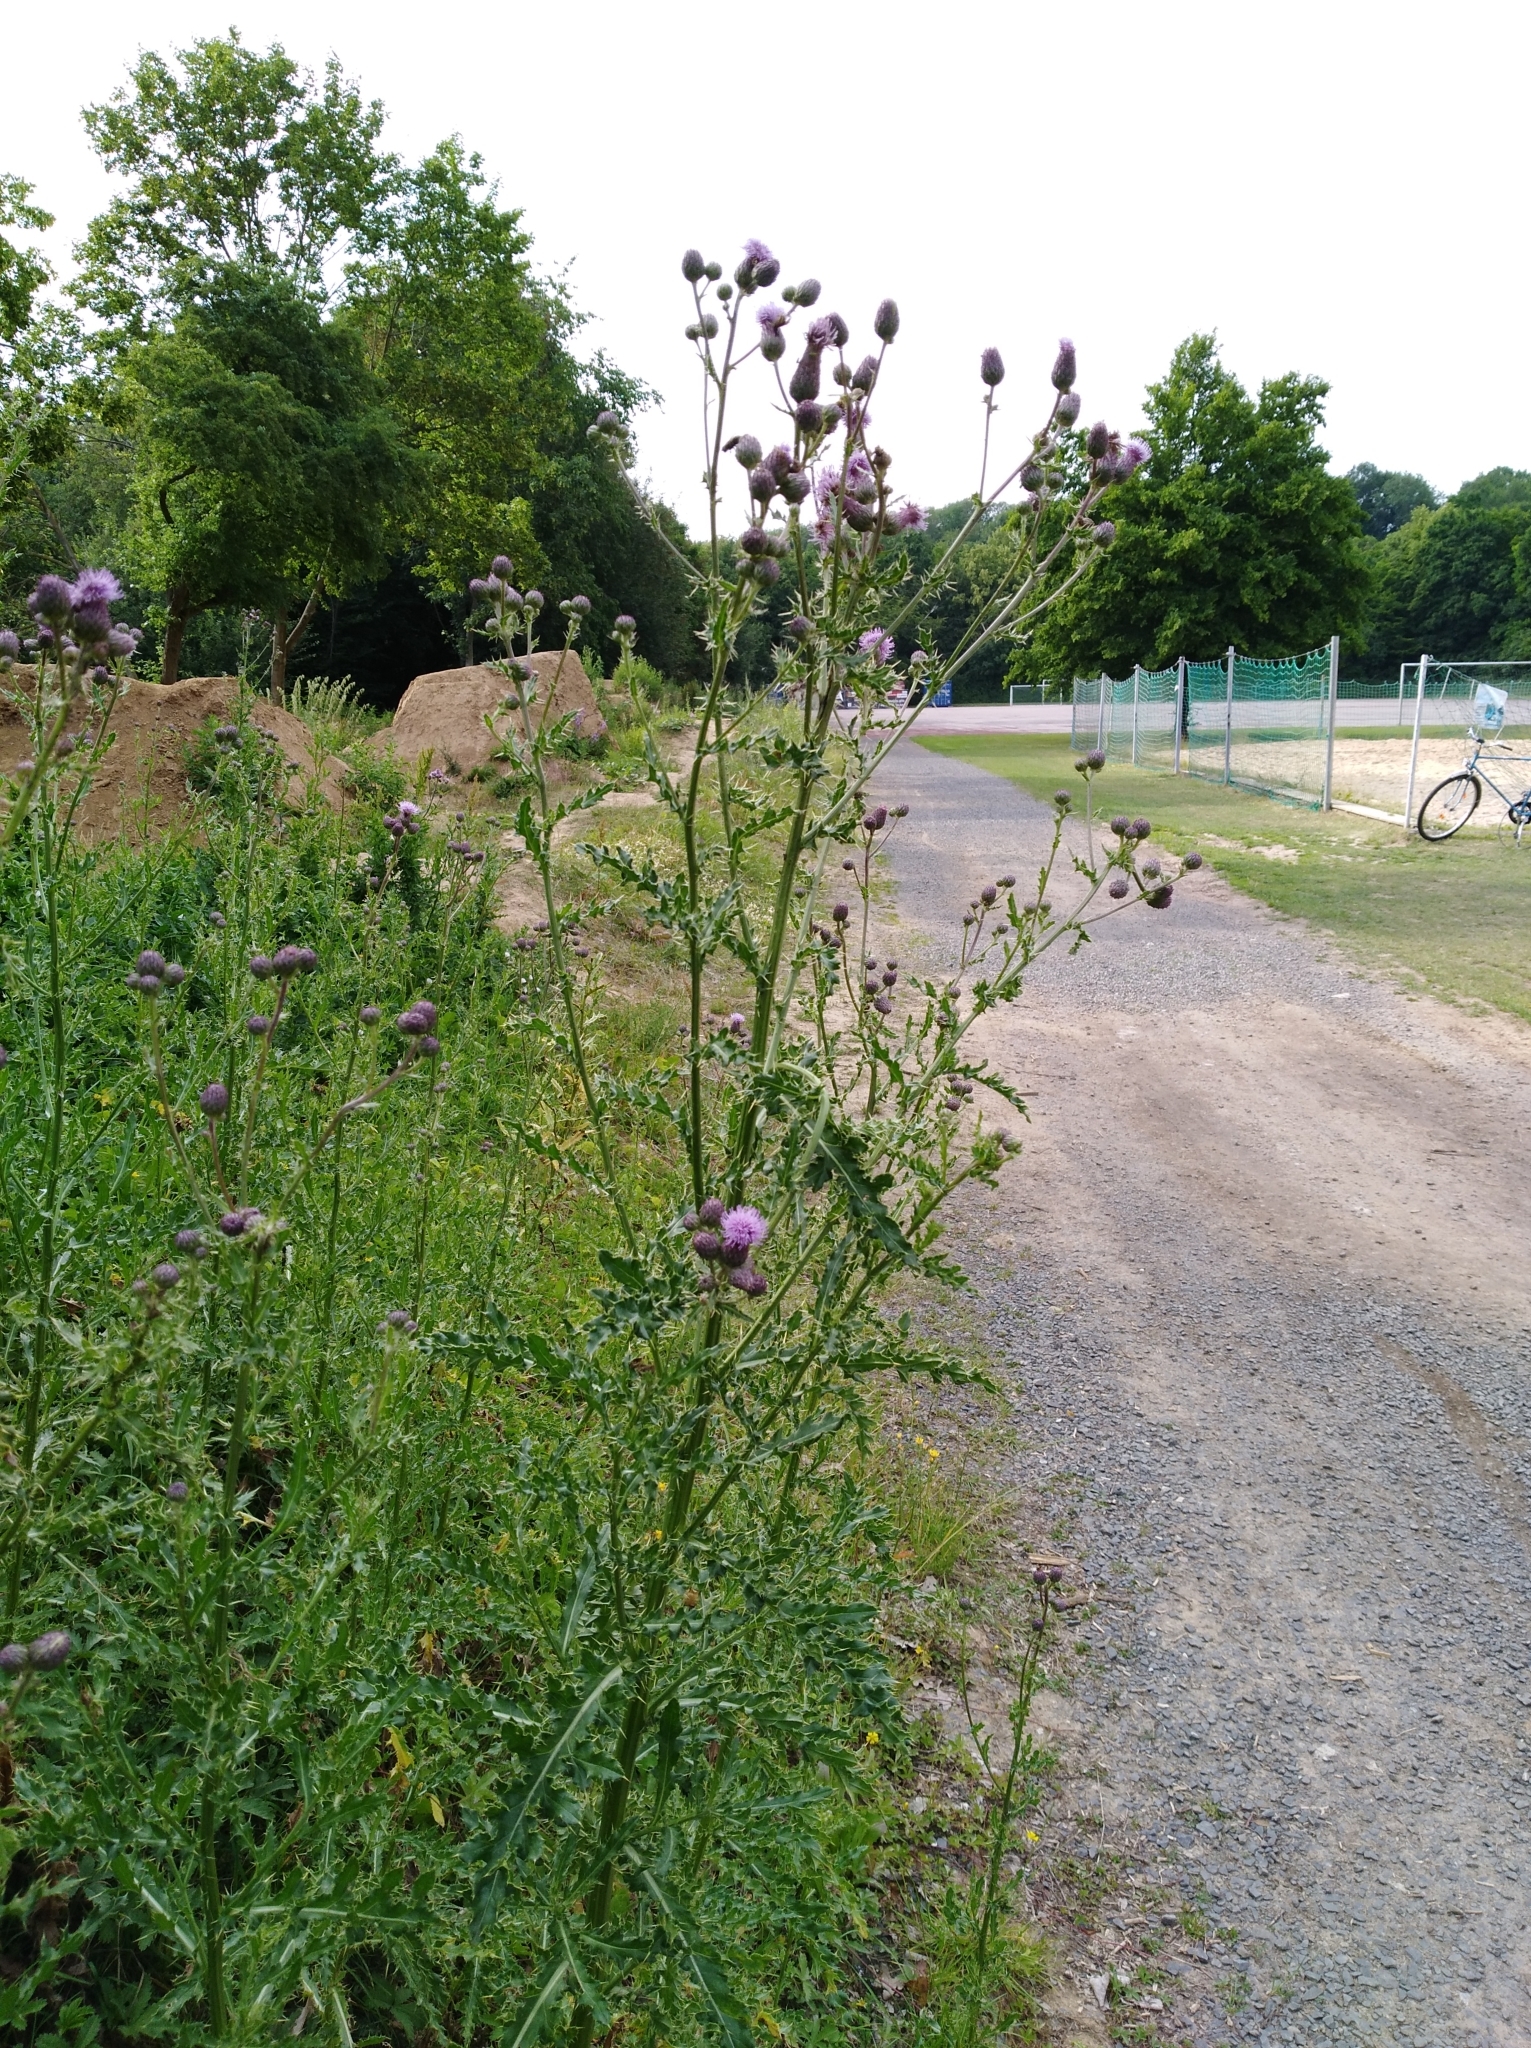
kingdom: Plantae
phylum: Tracheophyta
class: Magnoliopsida
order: Asterales
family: Asteraceae
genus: Cirsium
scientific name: Cirsium arvense
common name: Creeping thistle
